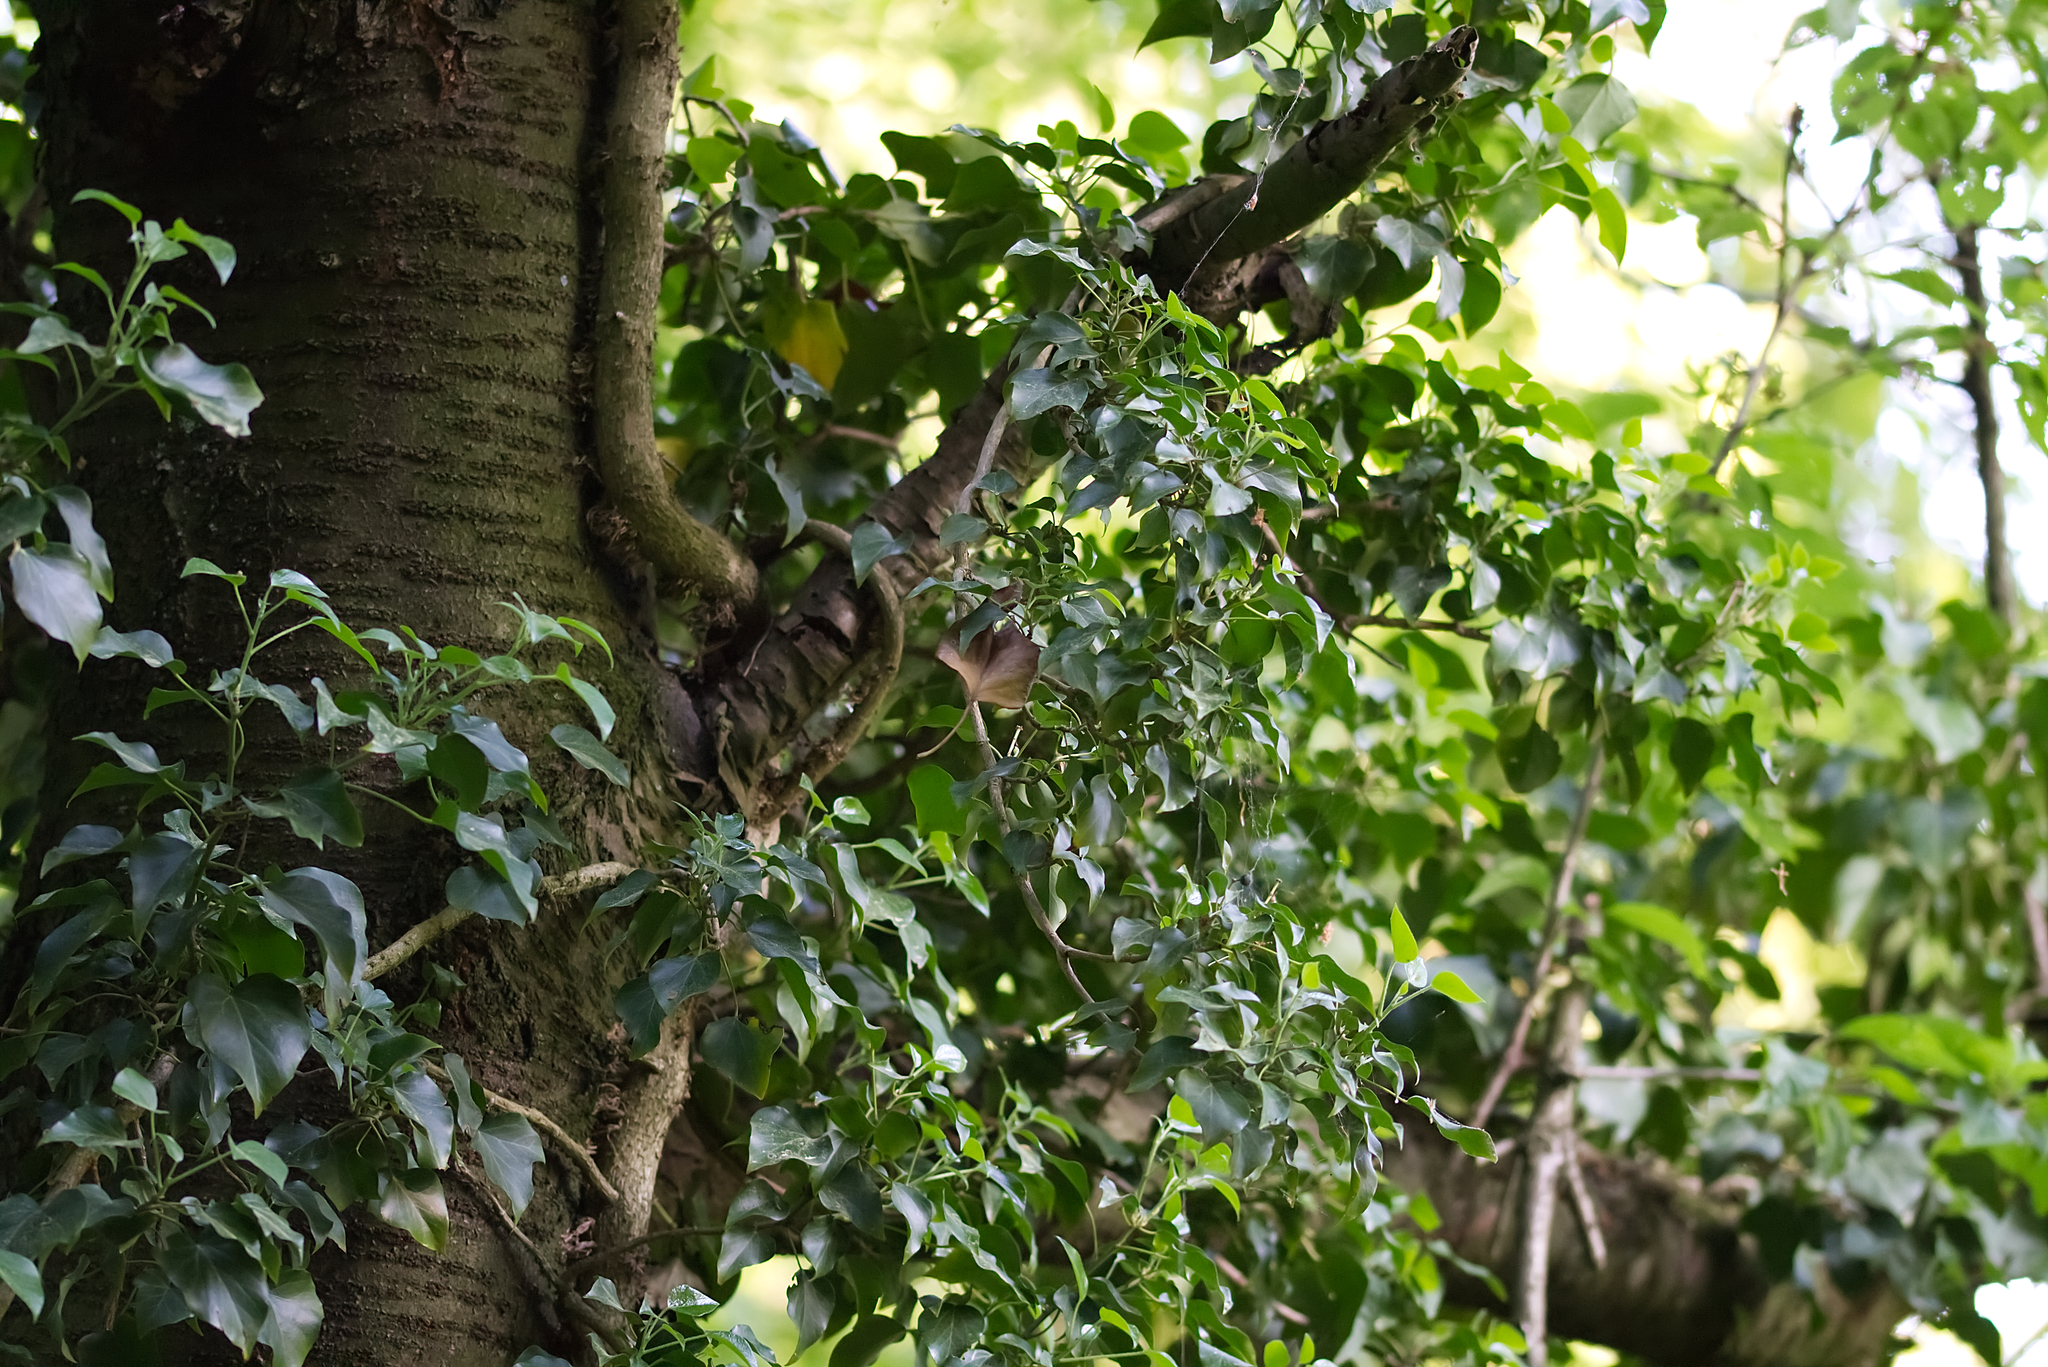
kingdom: Plantae
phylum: Tracheophyta
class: Magnoliopsida
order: Apiales
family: Araliaceae
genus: Hedera
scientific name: Hedera helix
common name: Ivy
